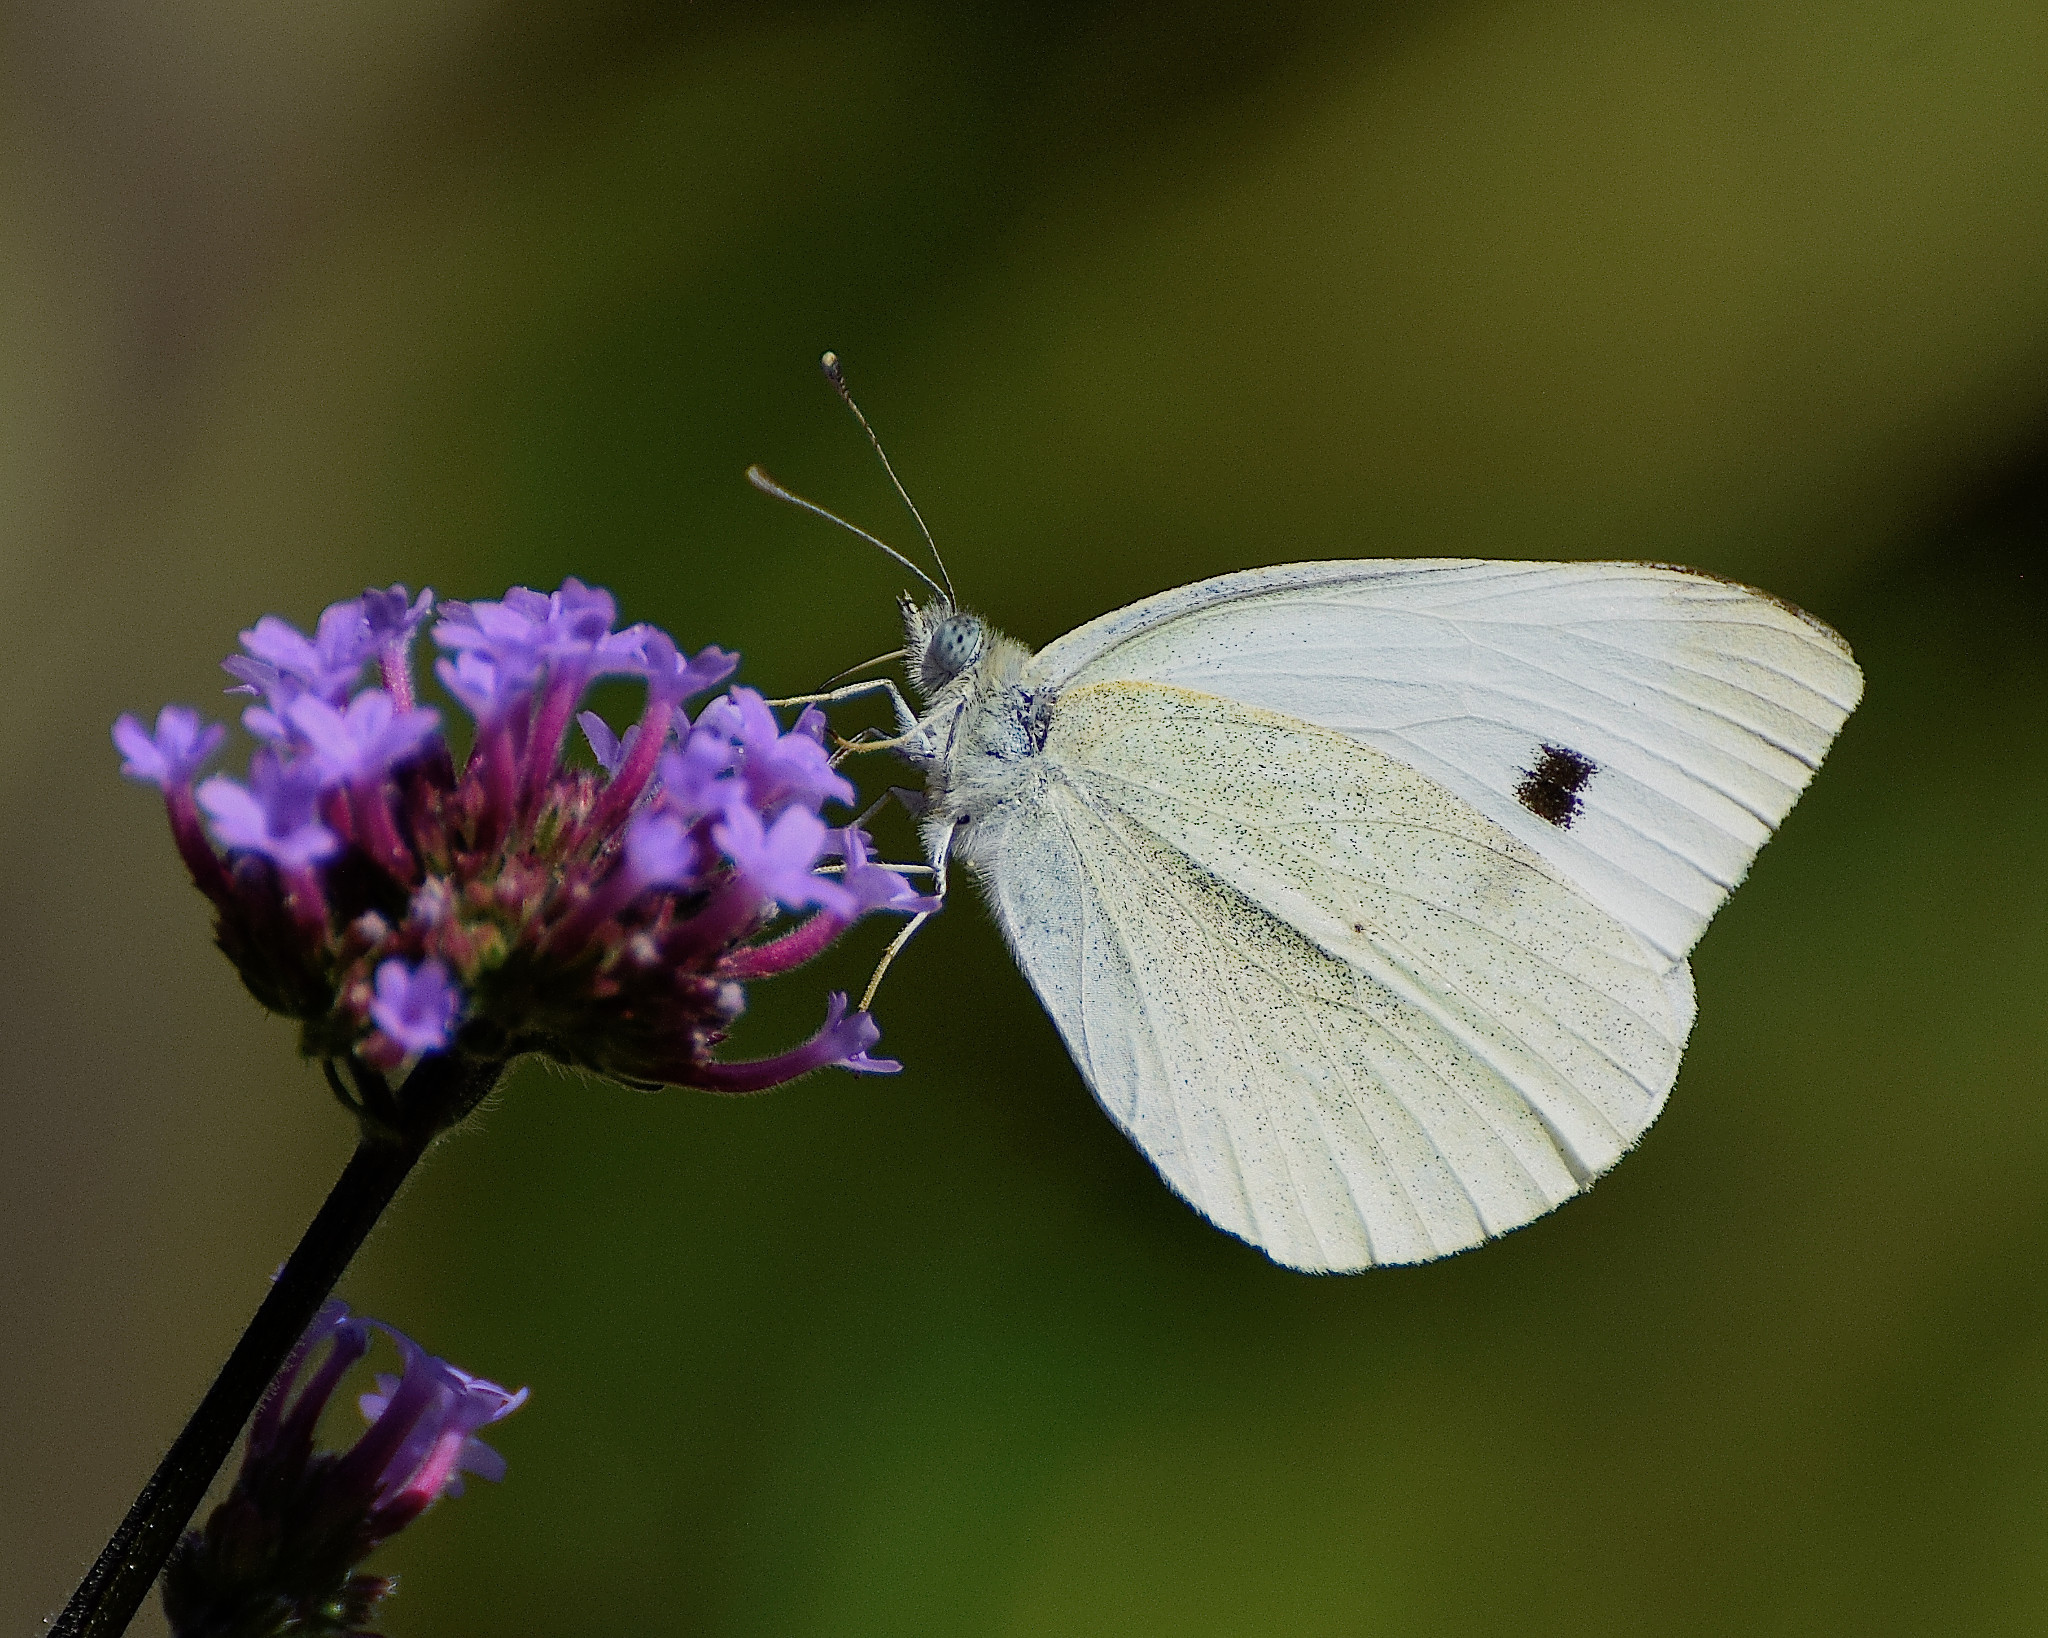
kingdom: Animalia
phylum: Arthropoda
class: Insecta
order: Lepidoptera
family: Pieridae
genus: Pieris
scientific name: Pieris rapae
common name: Small white
